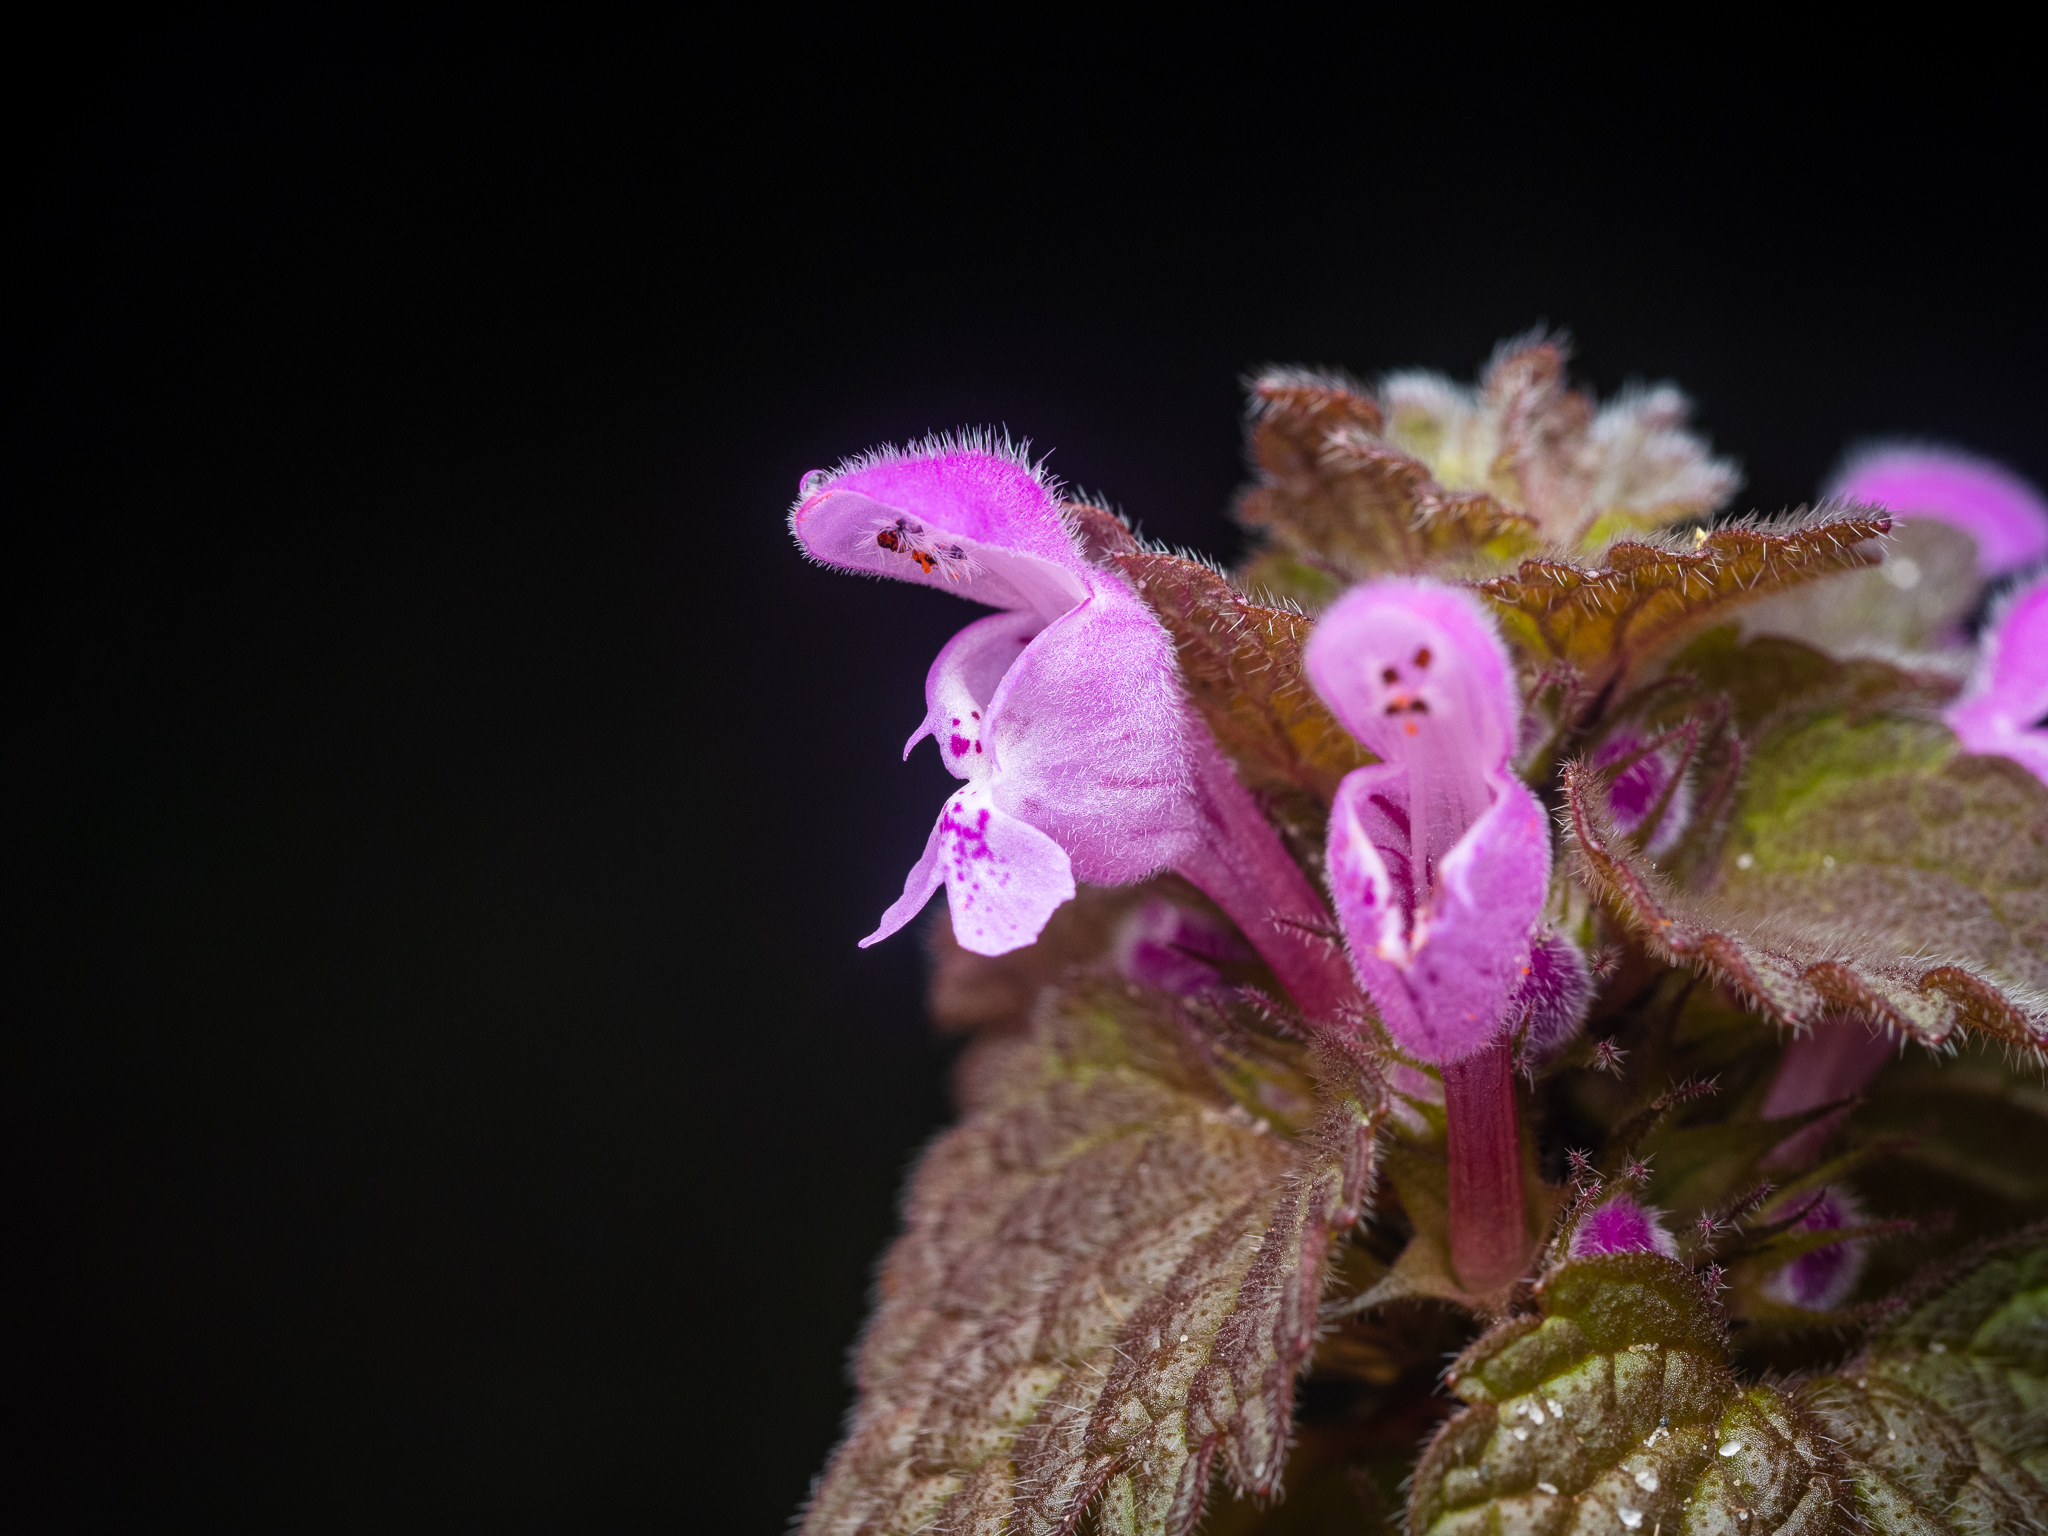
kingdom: Plantae
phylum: Tracheophyta
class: Magnoliopsida
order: Lamiales
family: Lamiaceae
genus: Lamium
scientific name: Lamium purpureum
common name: Red dead-nettle
